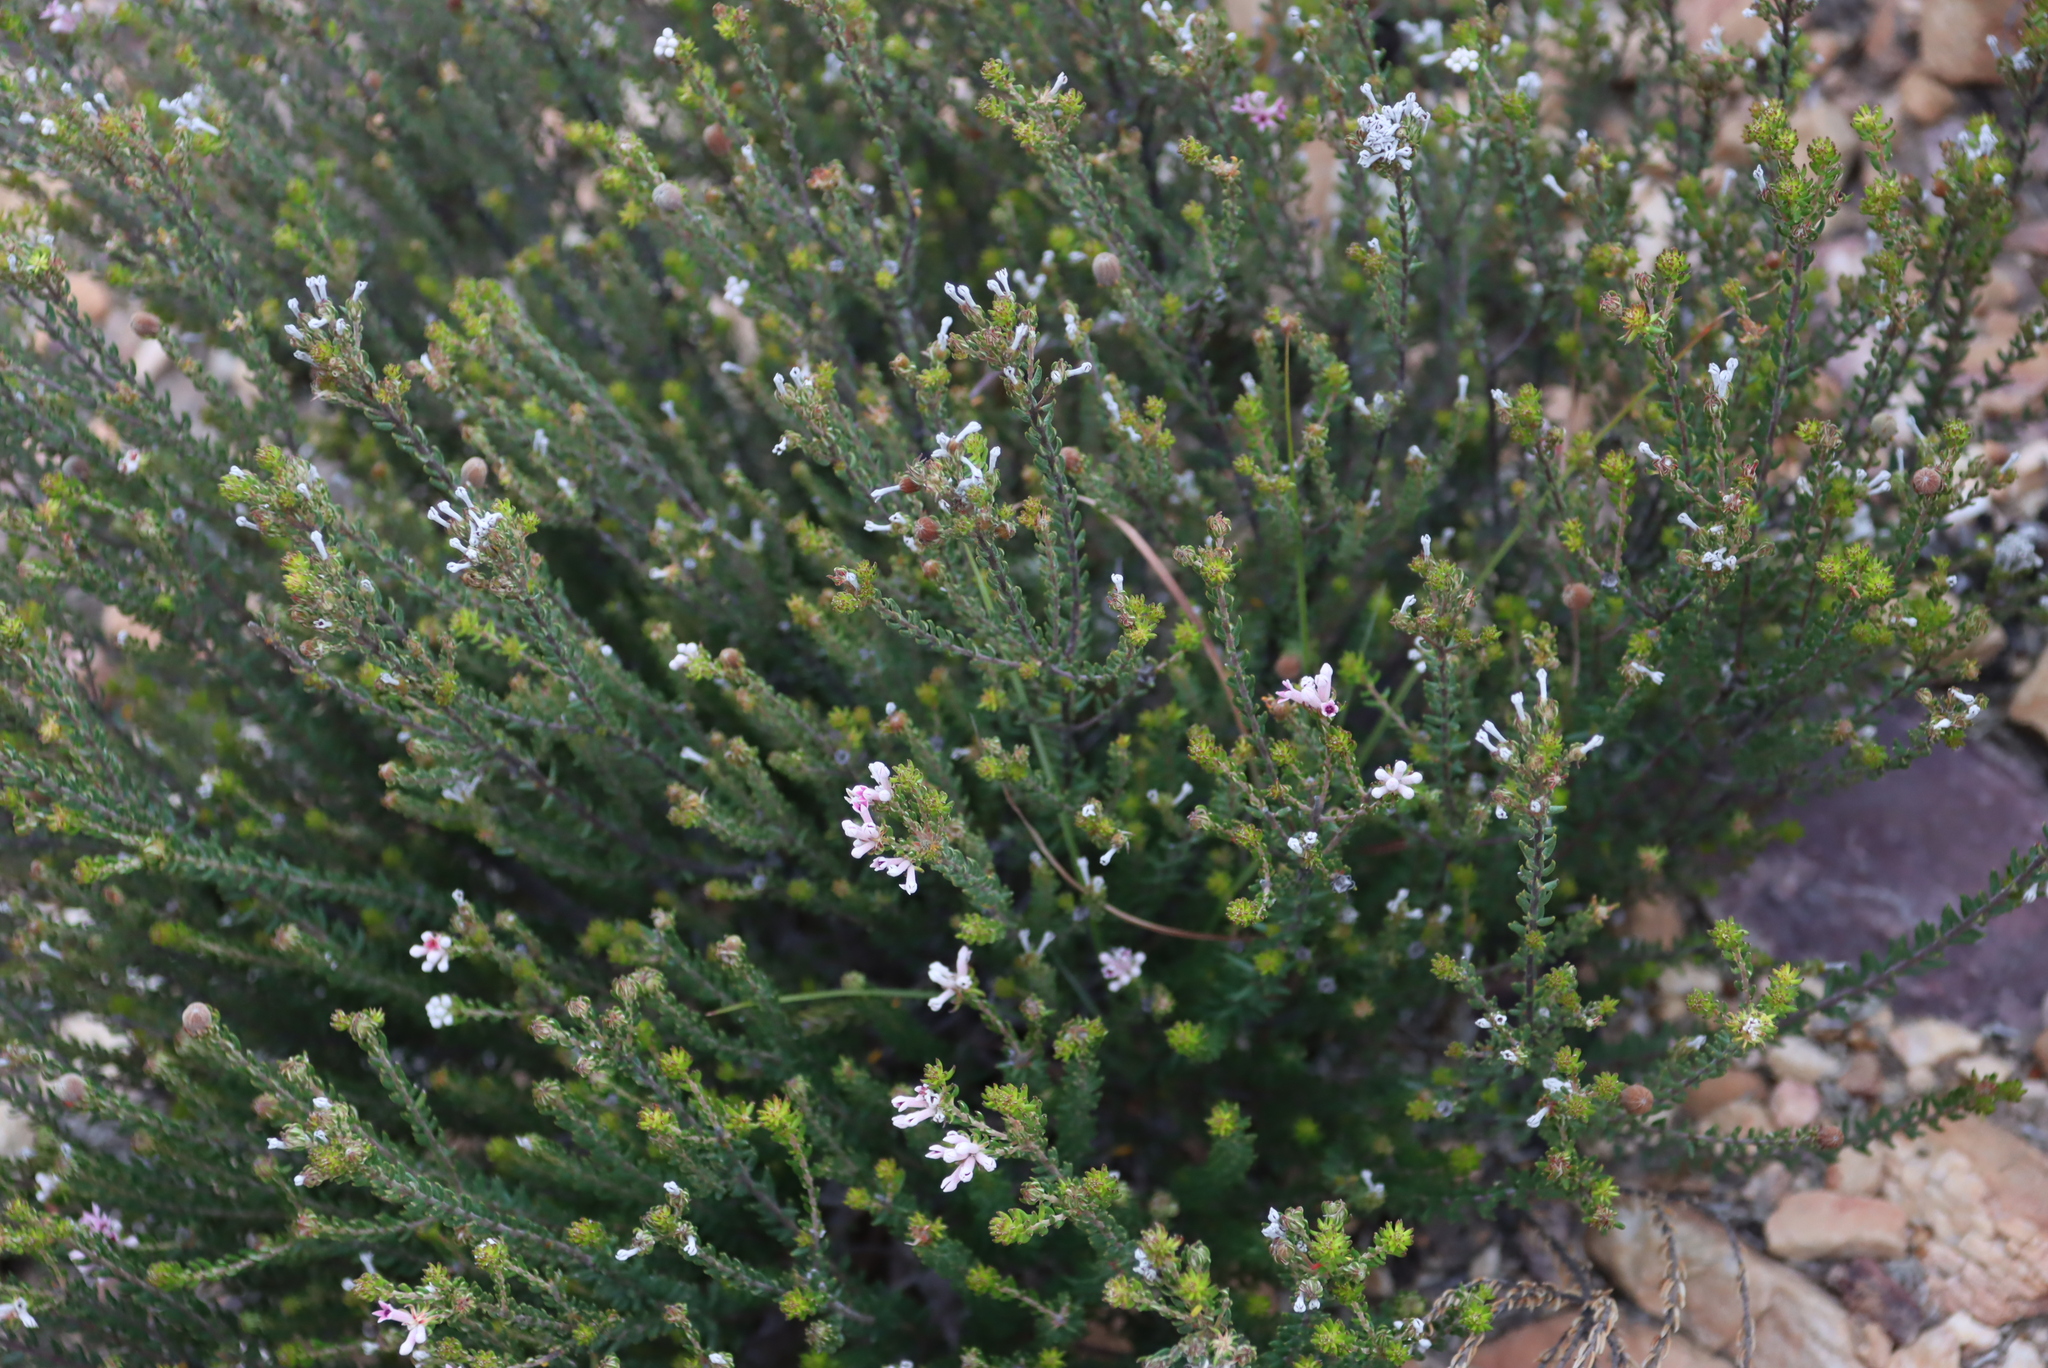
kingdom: Plantae
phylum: Tracheophyta
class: Magnoliopsida
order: Rosales
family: Rhamnaceae
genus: Phylica
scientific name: Phylica lachneaeoides
